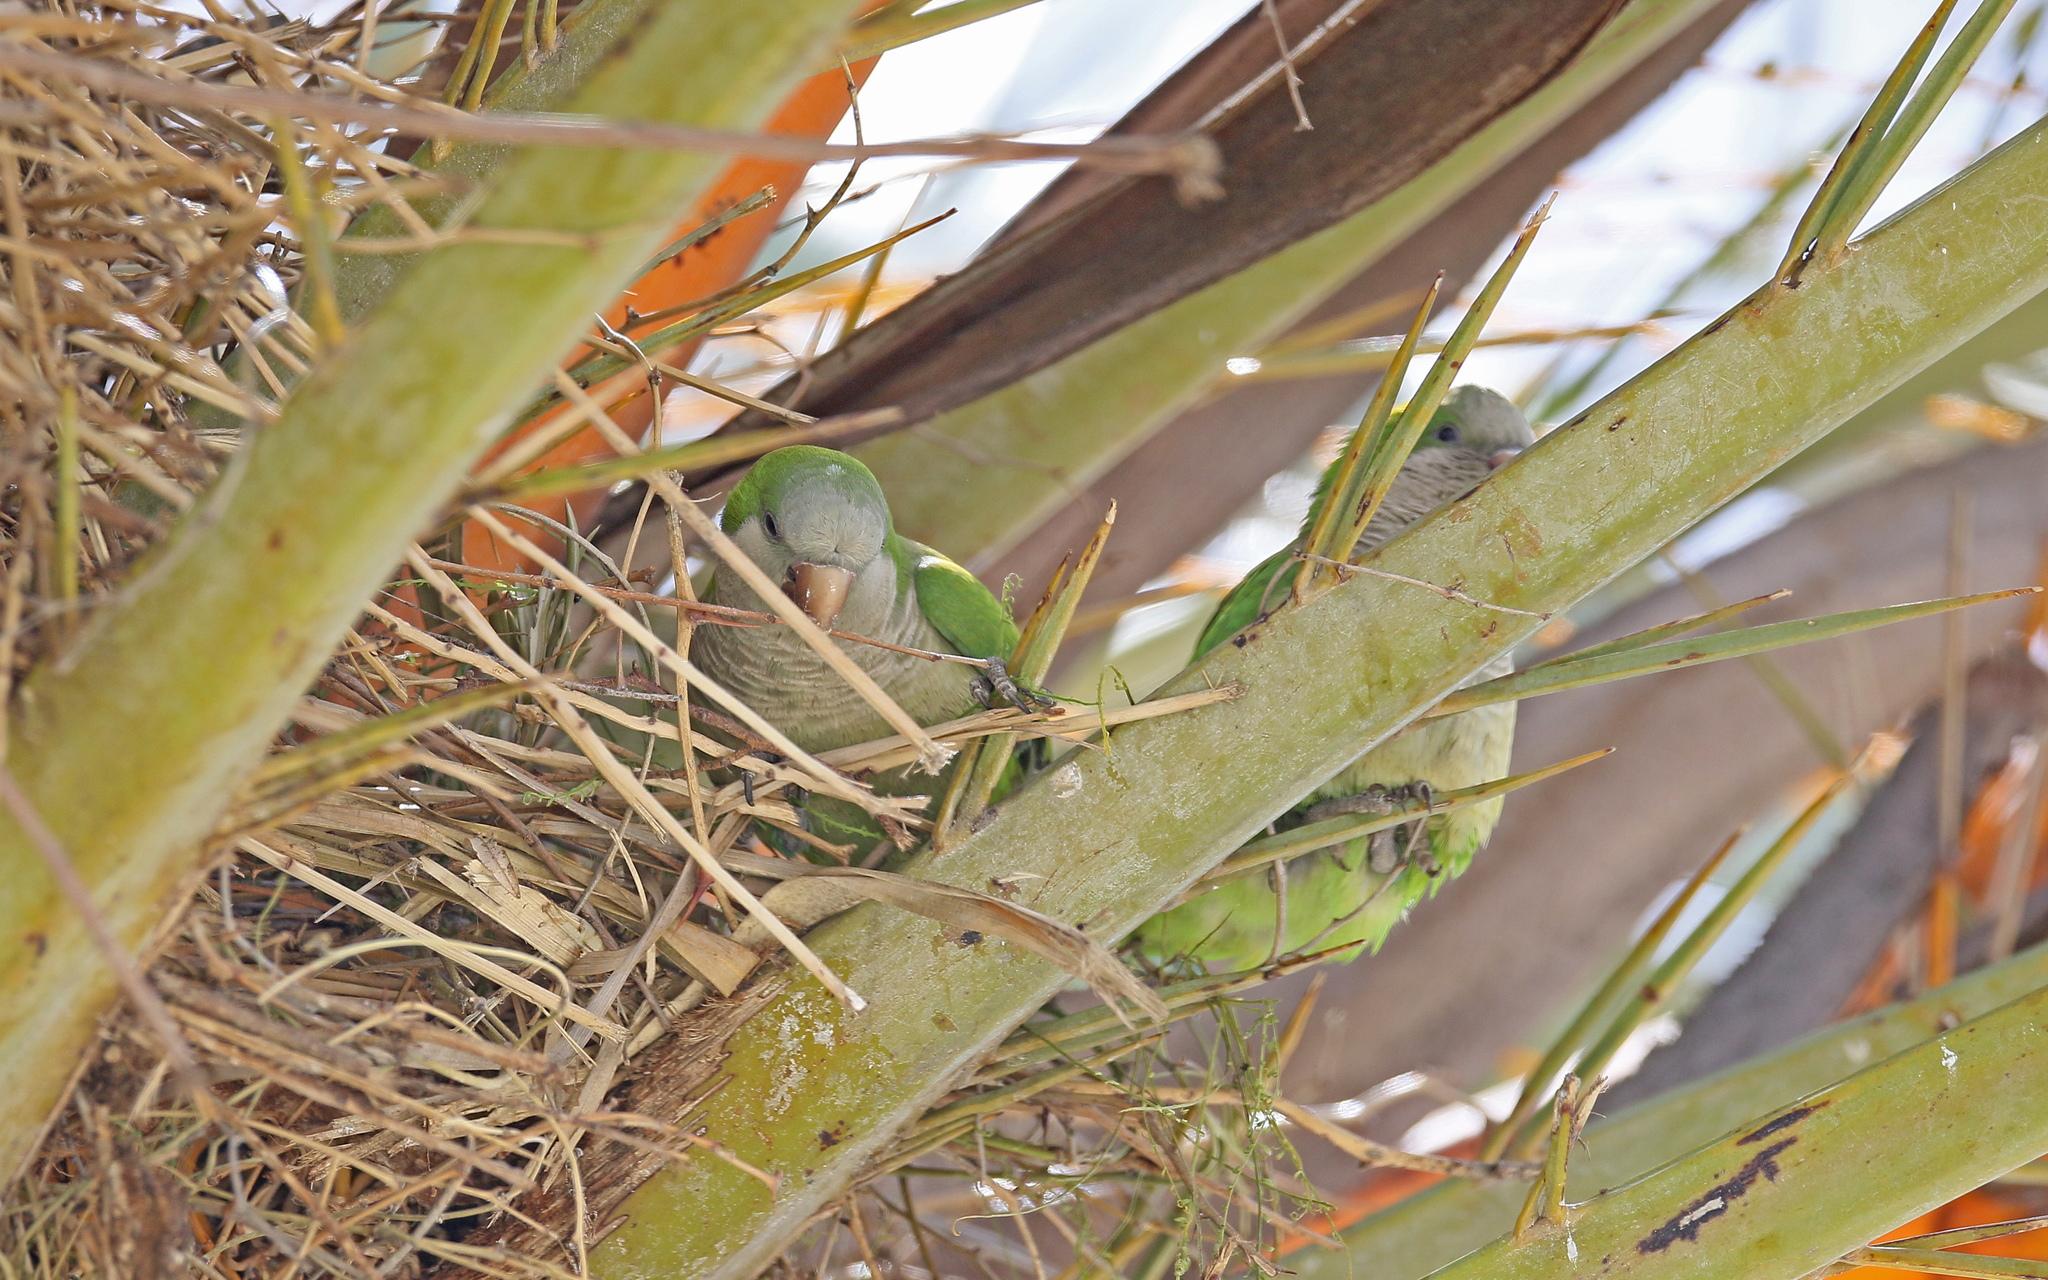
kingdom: Animalia
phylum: Chordata
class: Aves
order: Psittaciformes
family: Psittacidae
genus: Myiopsitta
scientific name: Myiopsitta monachus
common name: Monk parakeet
